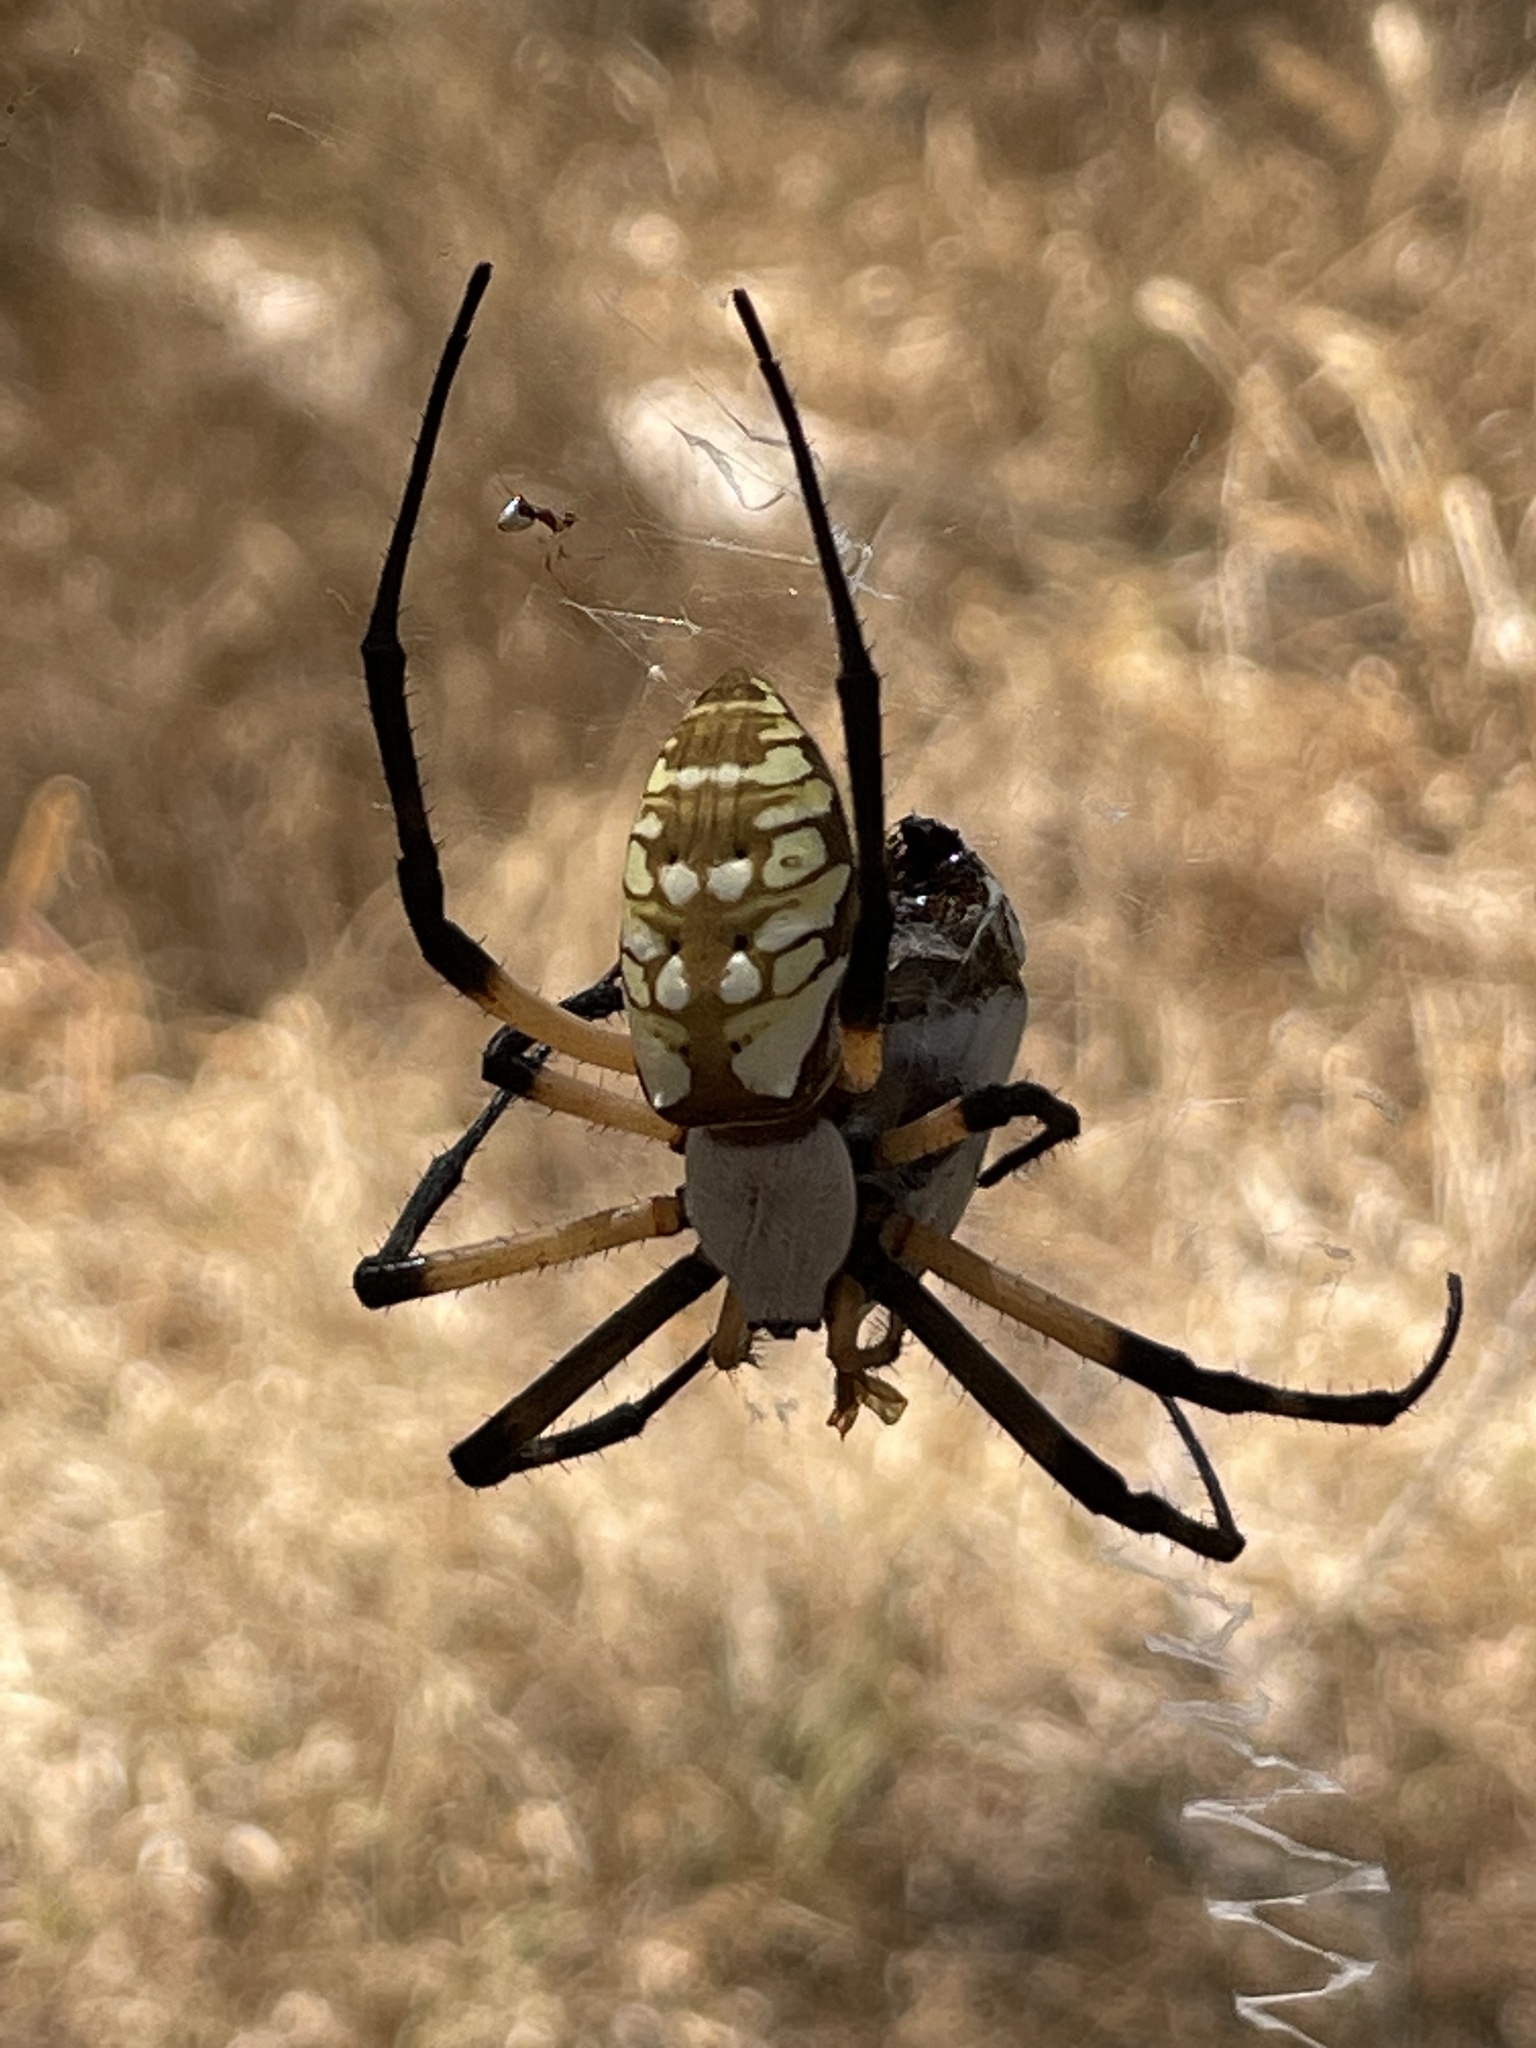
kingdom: Animalia
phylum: Arthropoda
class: Arachnida
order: Araneae
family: Araneidae
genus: Argiope
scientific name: Argiope aurantia
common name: Orb weavers
